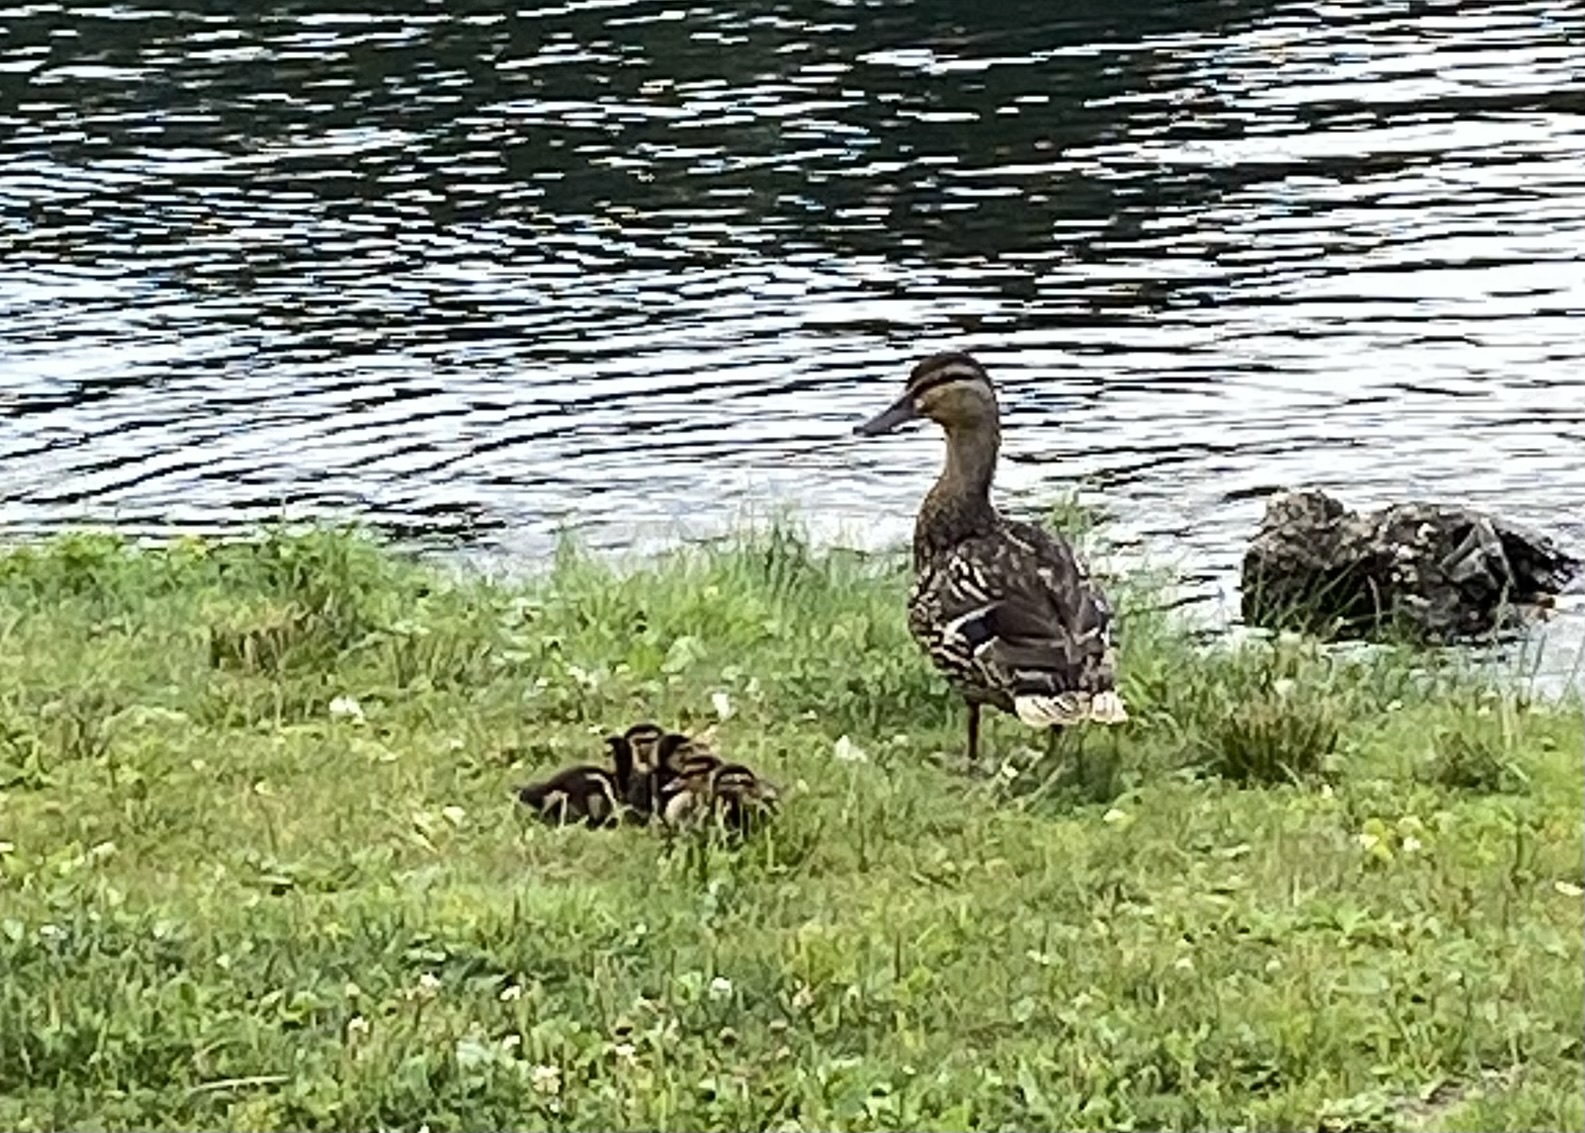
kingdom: Animalia
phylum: Chordata
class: Aves
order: Anseriformes
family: Anatidae
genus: Anas
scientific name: Anas platyrhynchos
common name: Mallard
